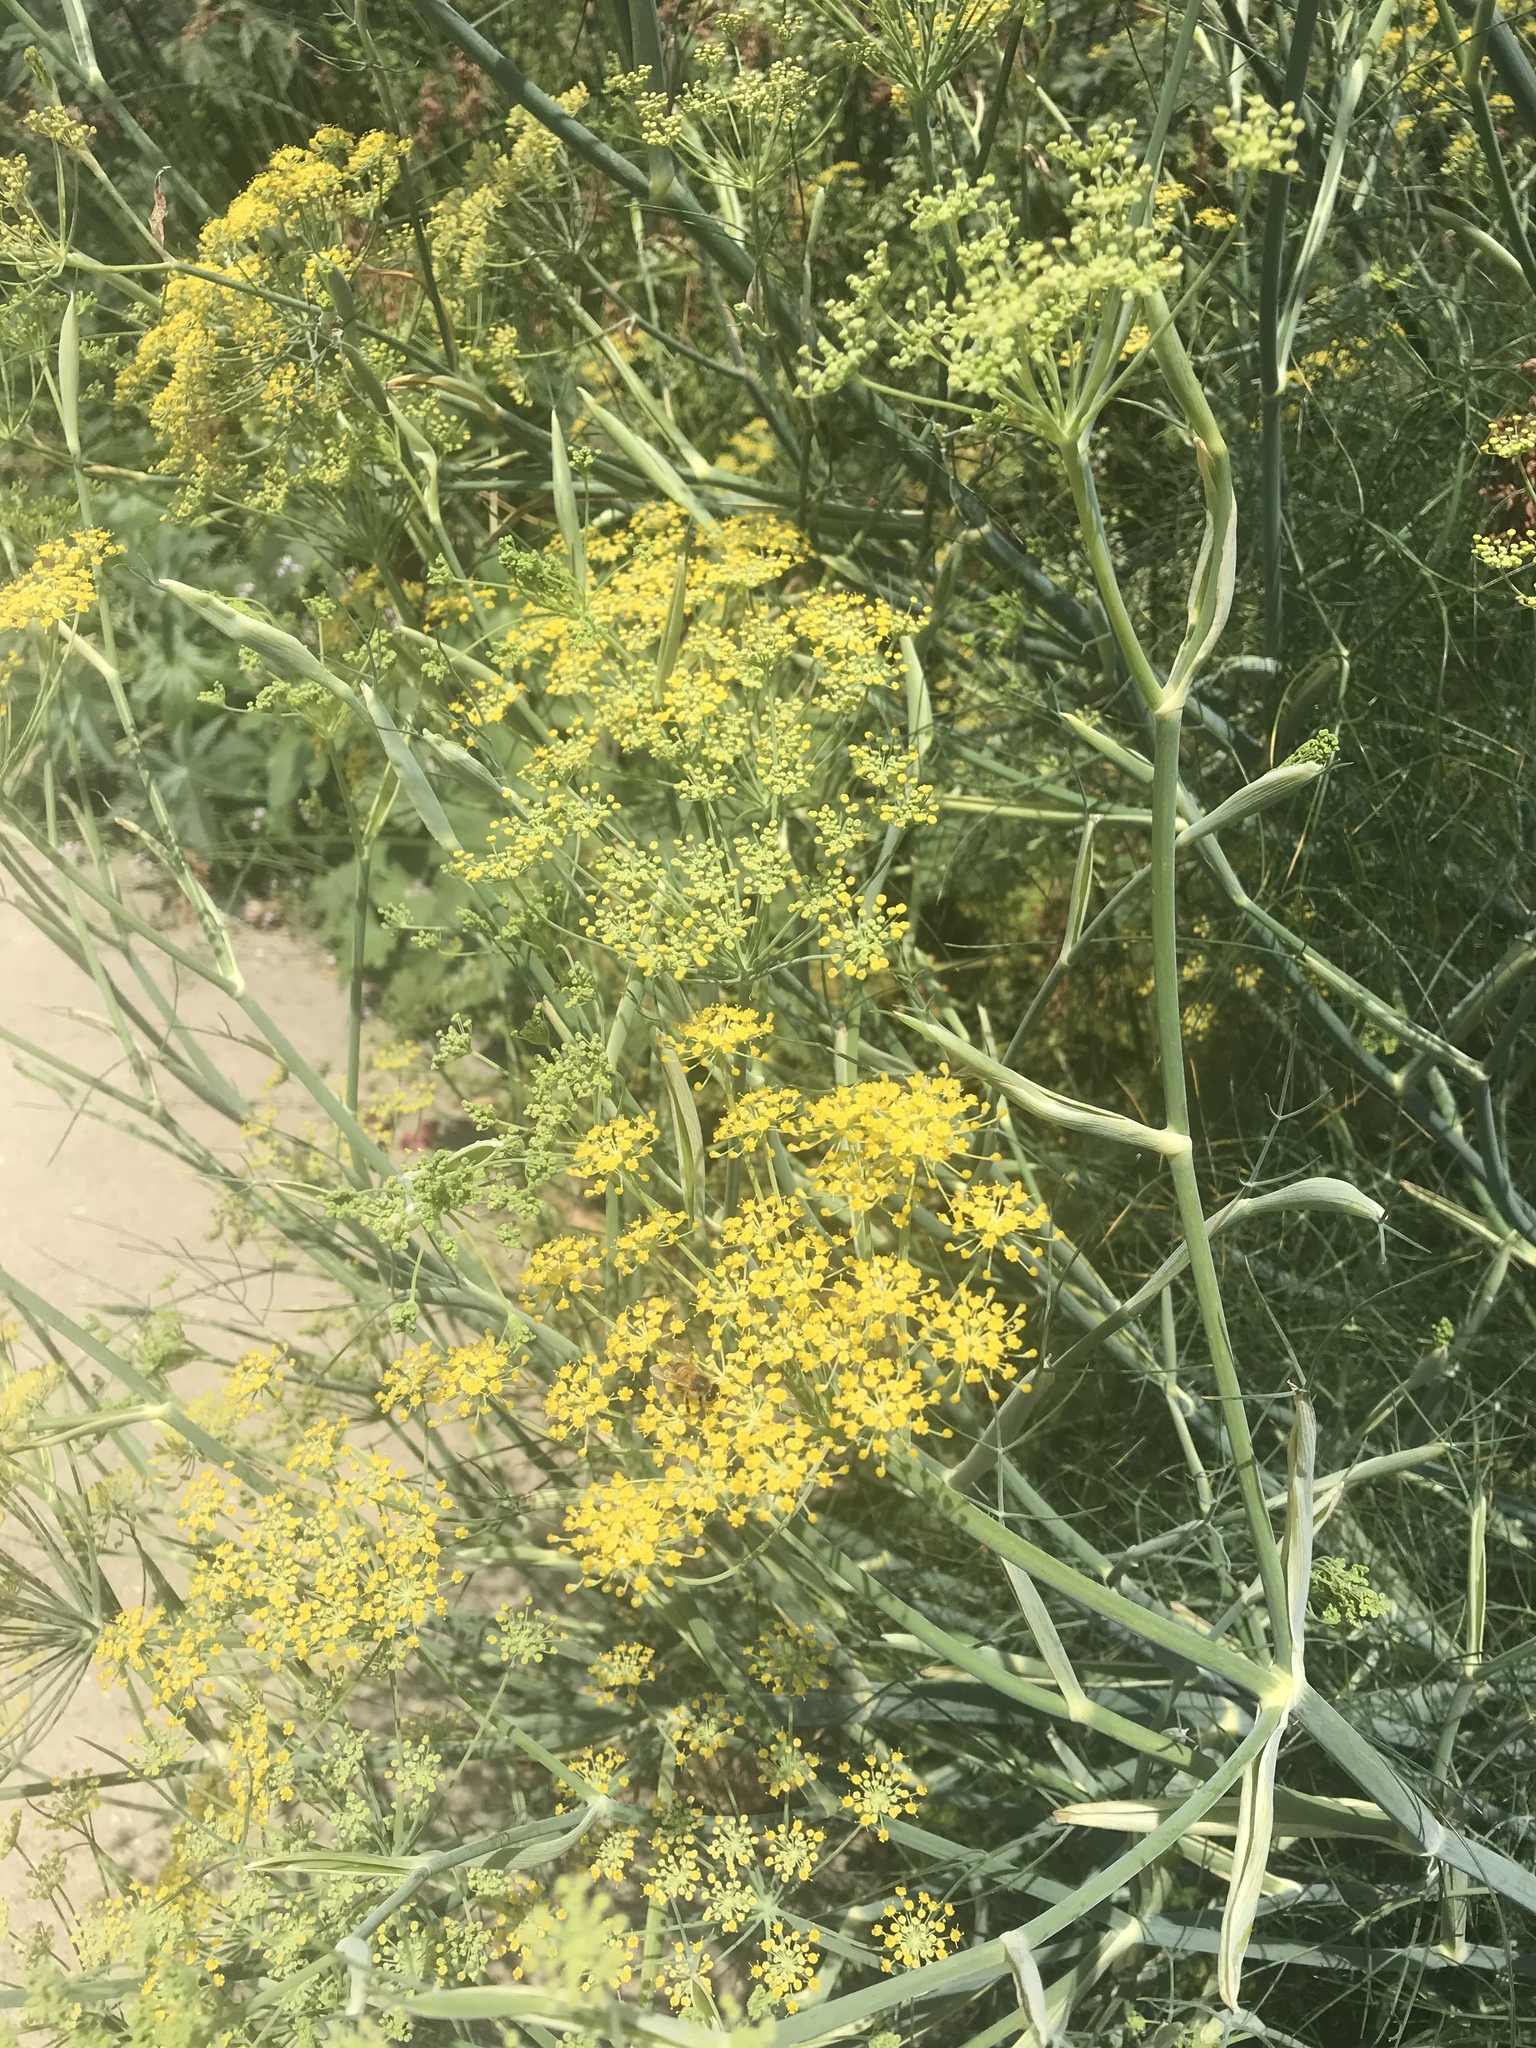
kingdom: Plantae
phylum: Tracheophyta
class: Magnoliopsida
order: Apiales
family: Apiaceae
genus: Foeniculum
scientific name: Foeniculum vulgare
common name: Fennel
